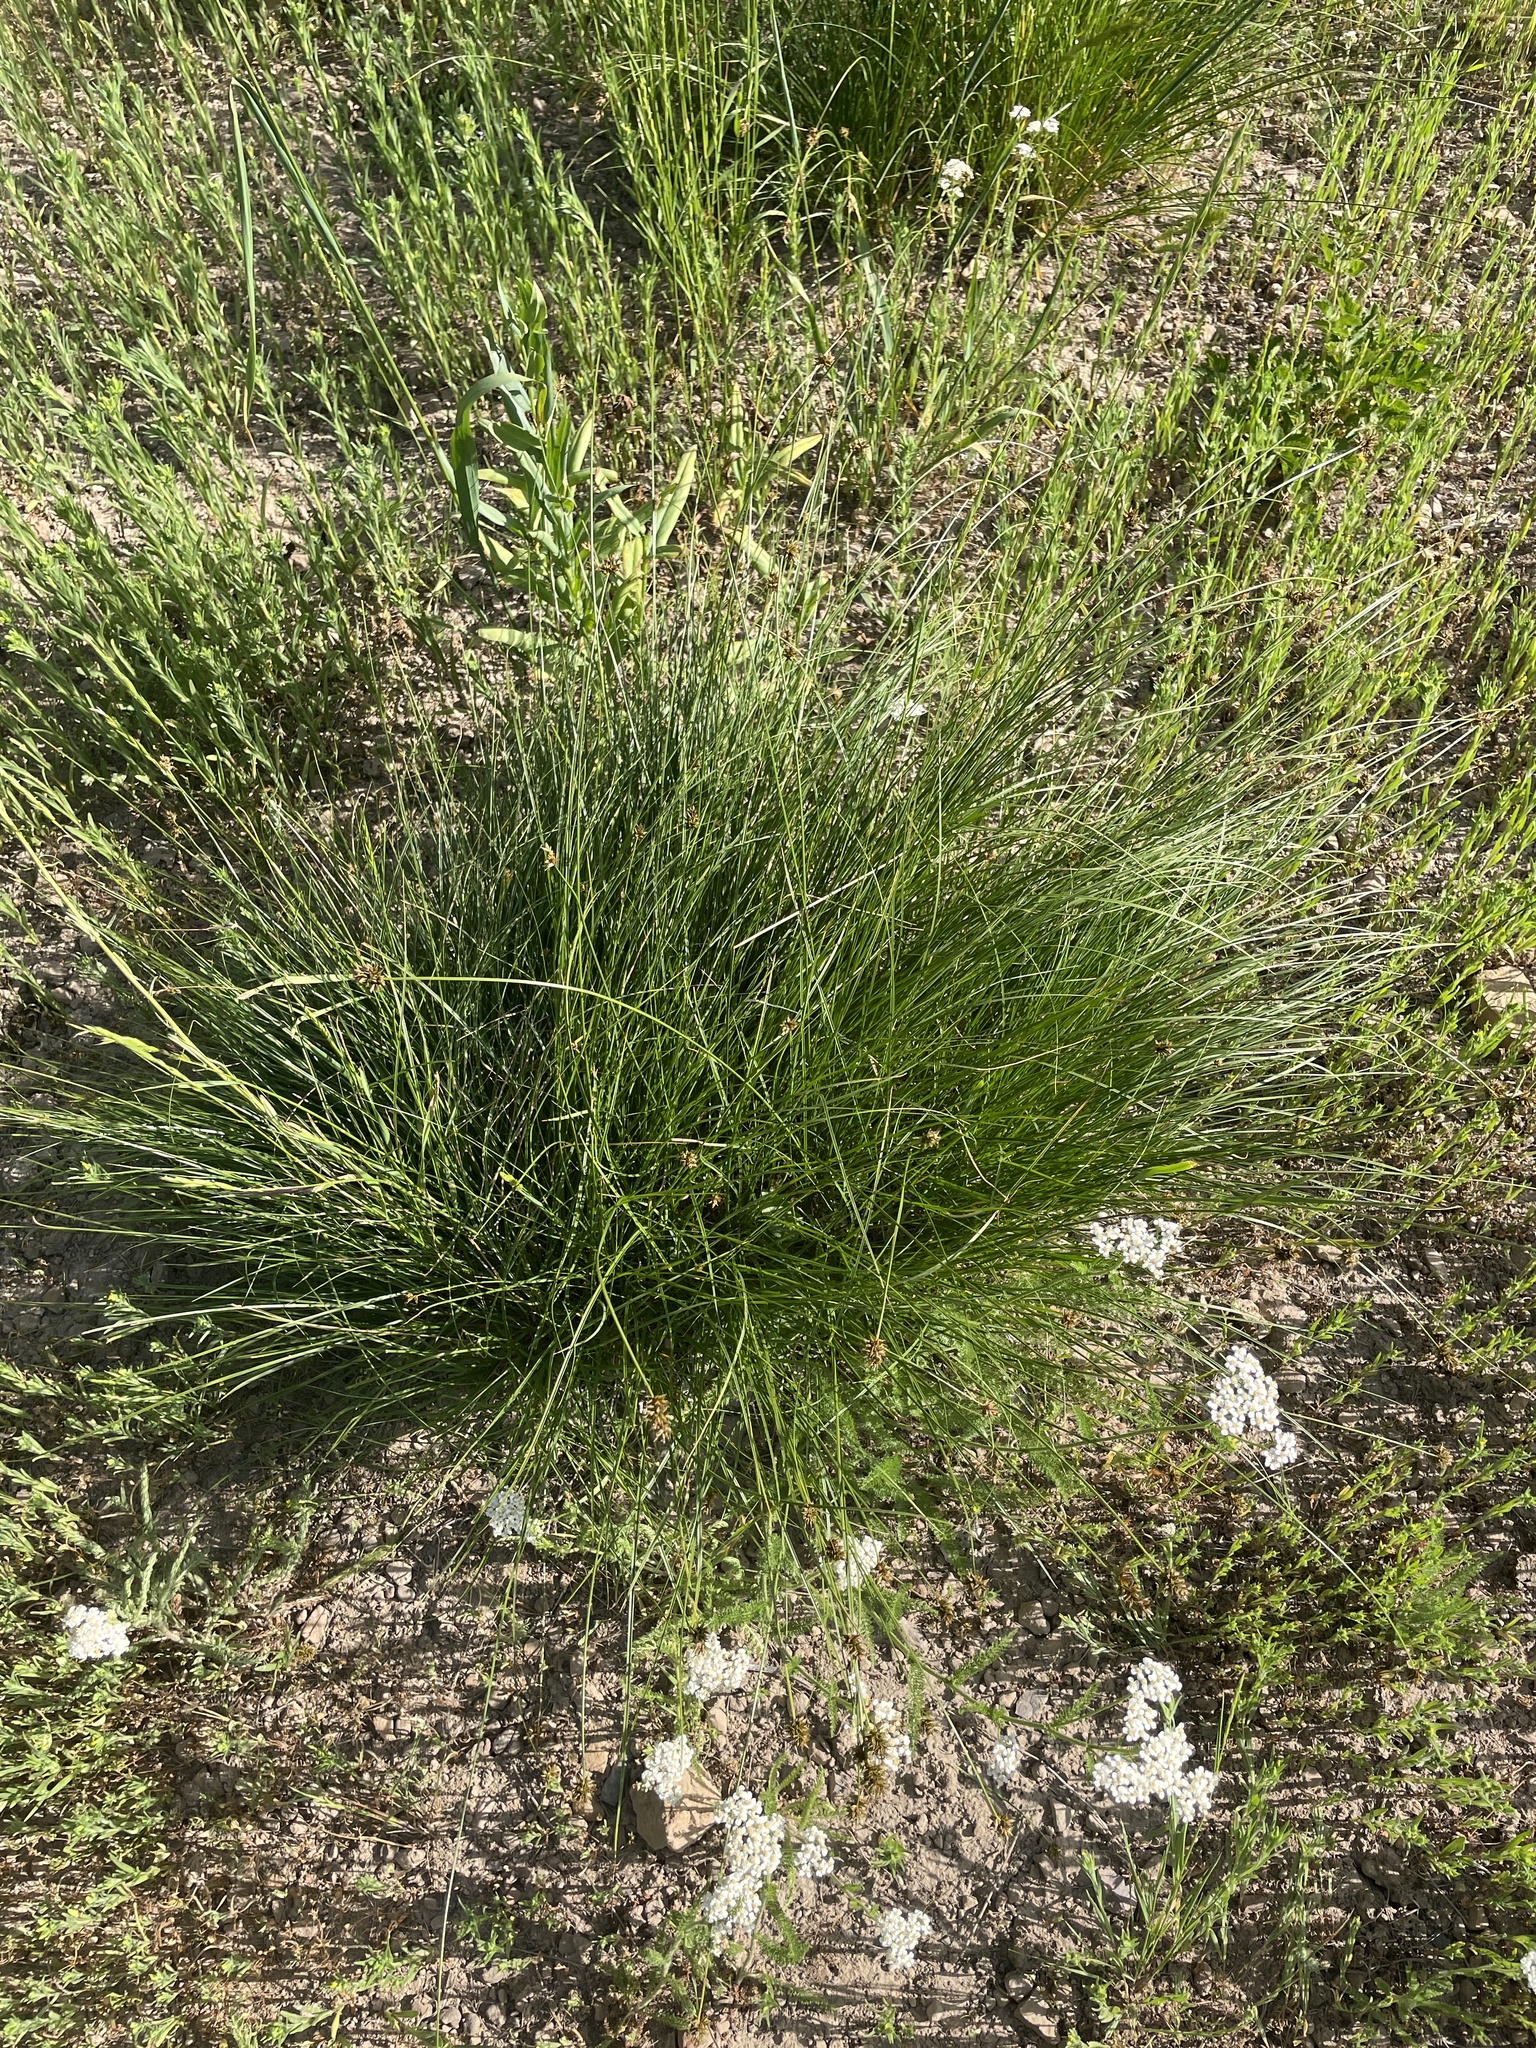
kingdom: Plantae
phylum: Tracheophyta
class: Liliopsida
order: Poales
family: Cyperaceae
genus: Carex
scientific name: Carex hoodii
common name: Hood's sedge
